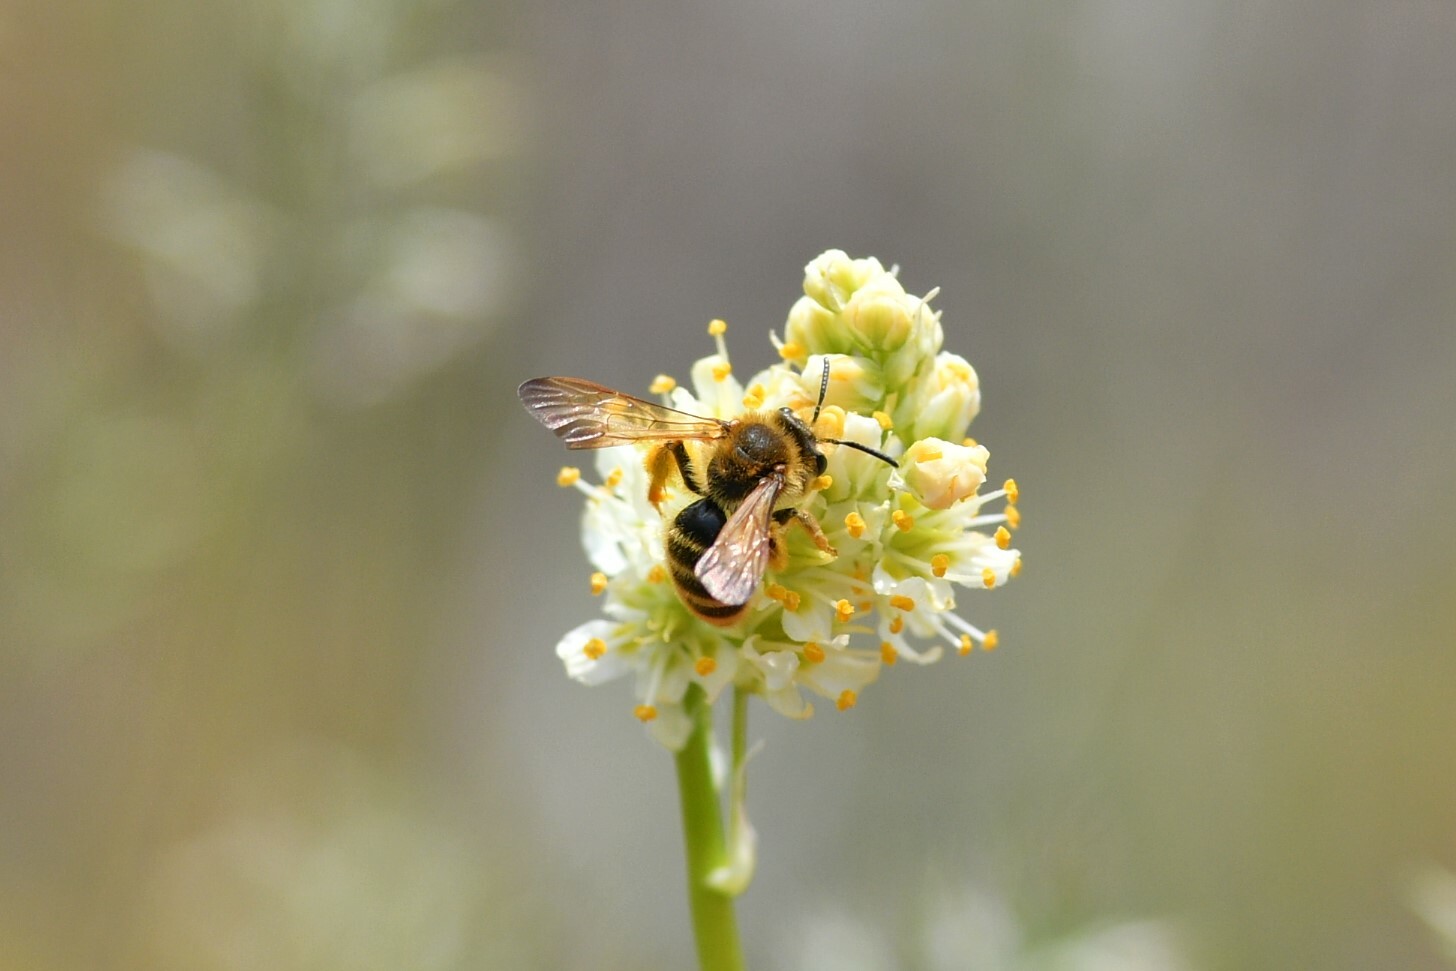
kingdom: Animalia
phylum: Arthropoda
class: Insecta
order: Hymenoptera
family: Andrenidae
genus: Andrena
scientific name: Andrena astragali
